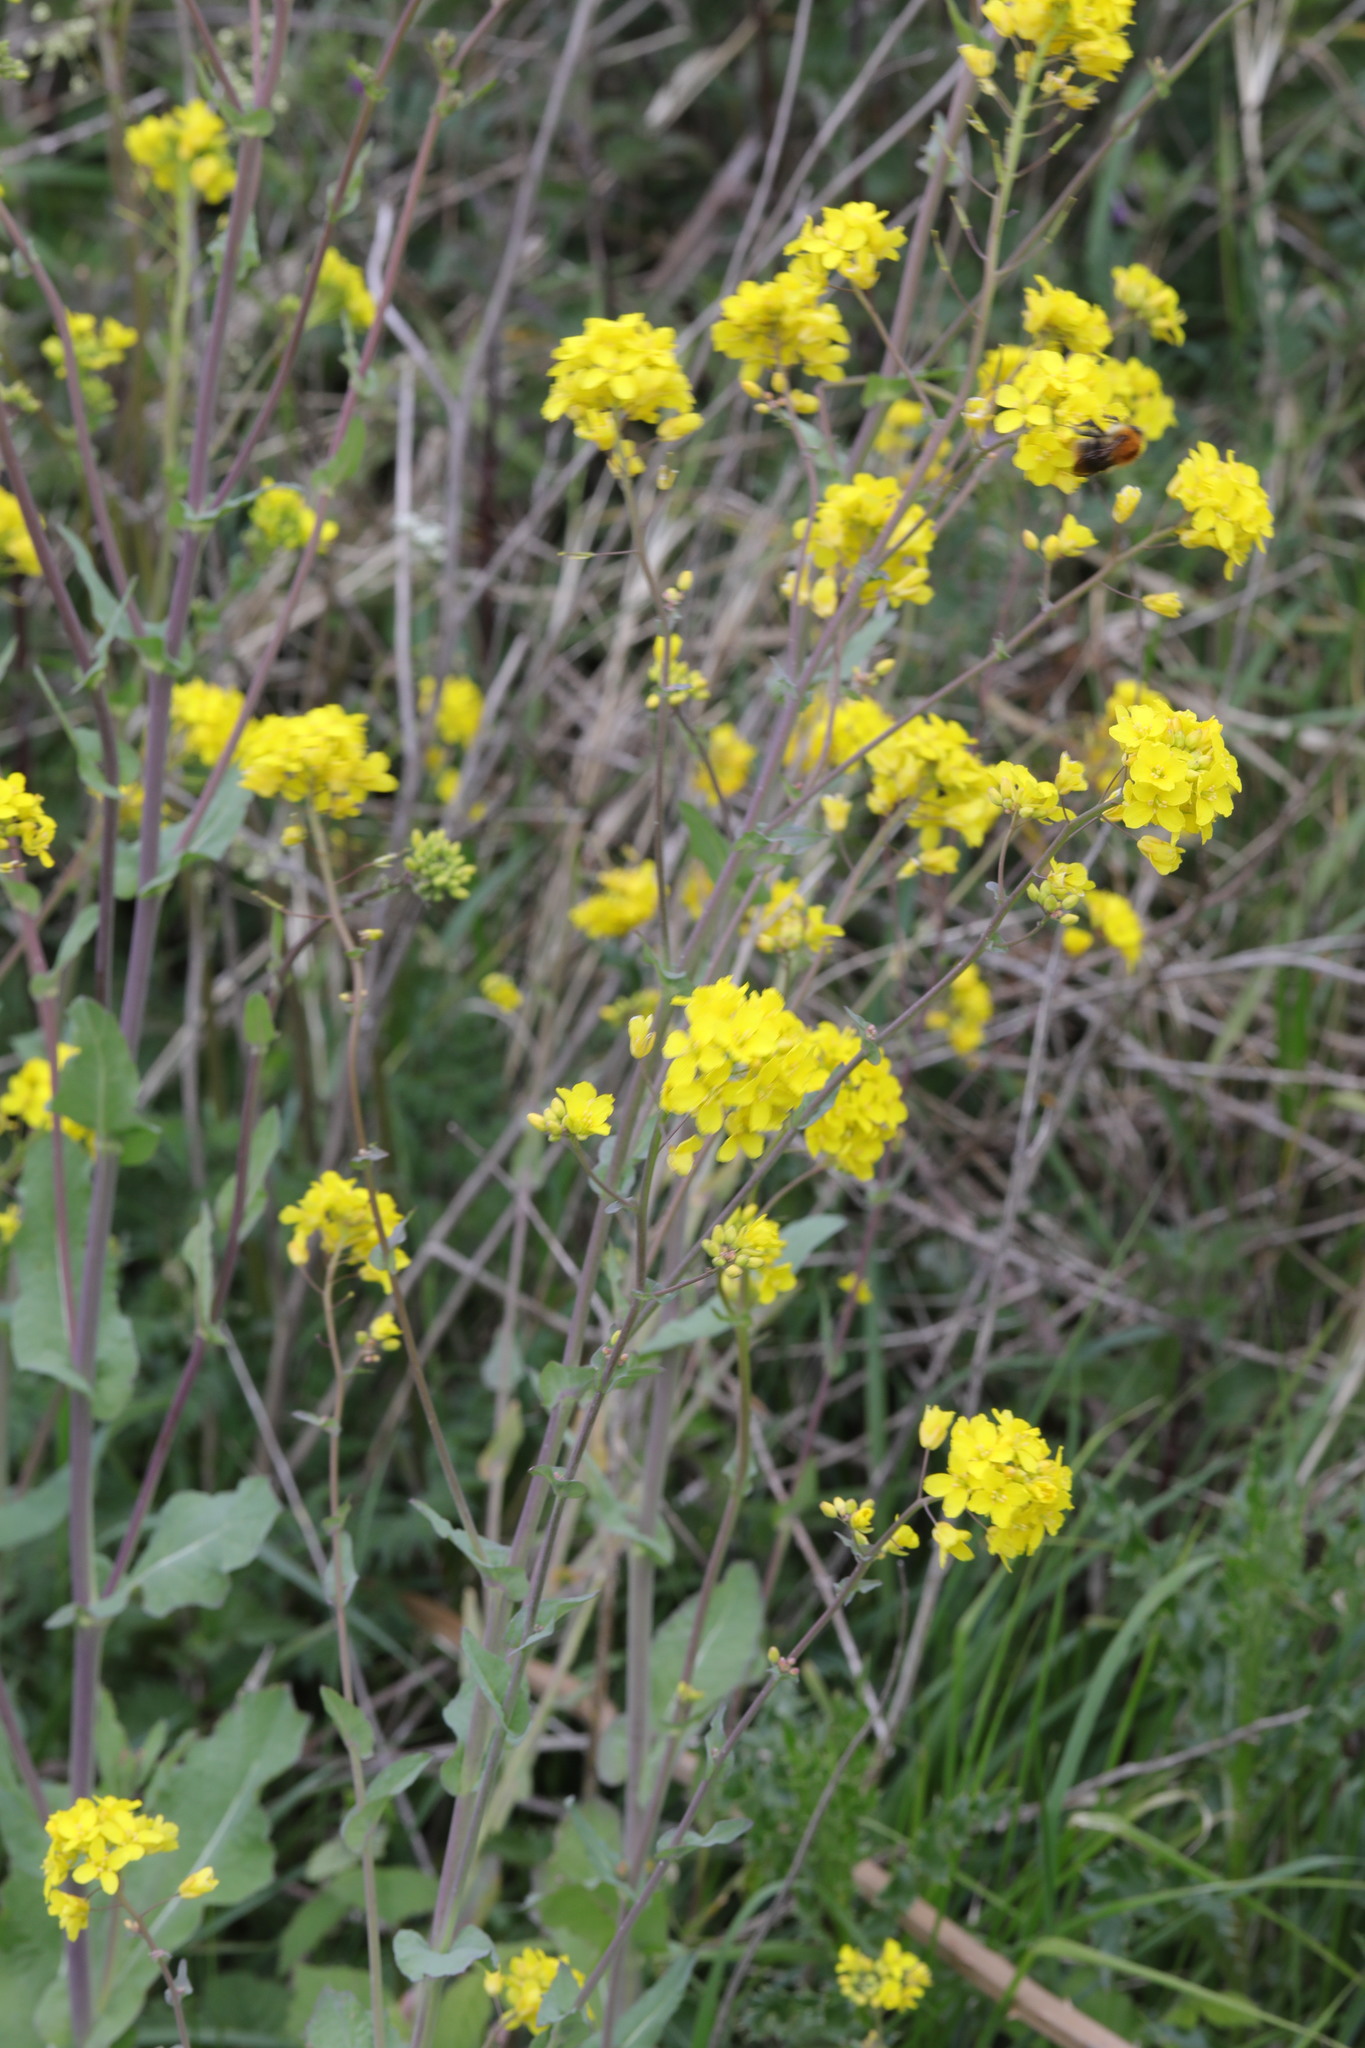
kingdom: Plantae
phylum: Tracheophyta
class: Magnoliopsida
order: Brassicales
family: Brassicaceae
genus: Brassica
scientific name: Brassica rapa
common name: Field mustard
